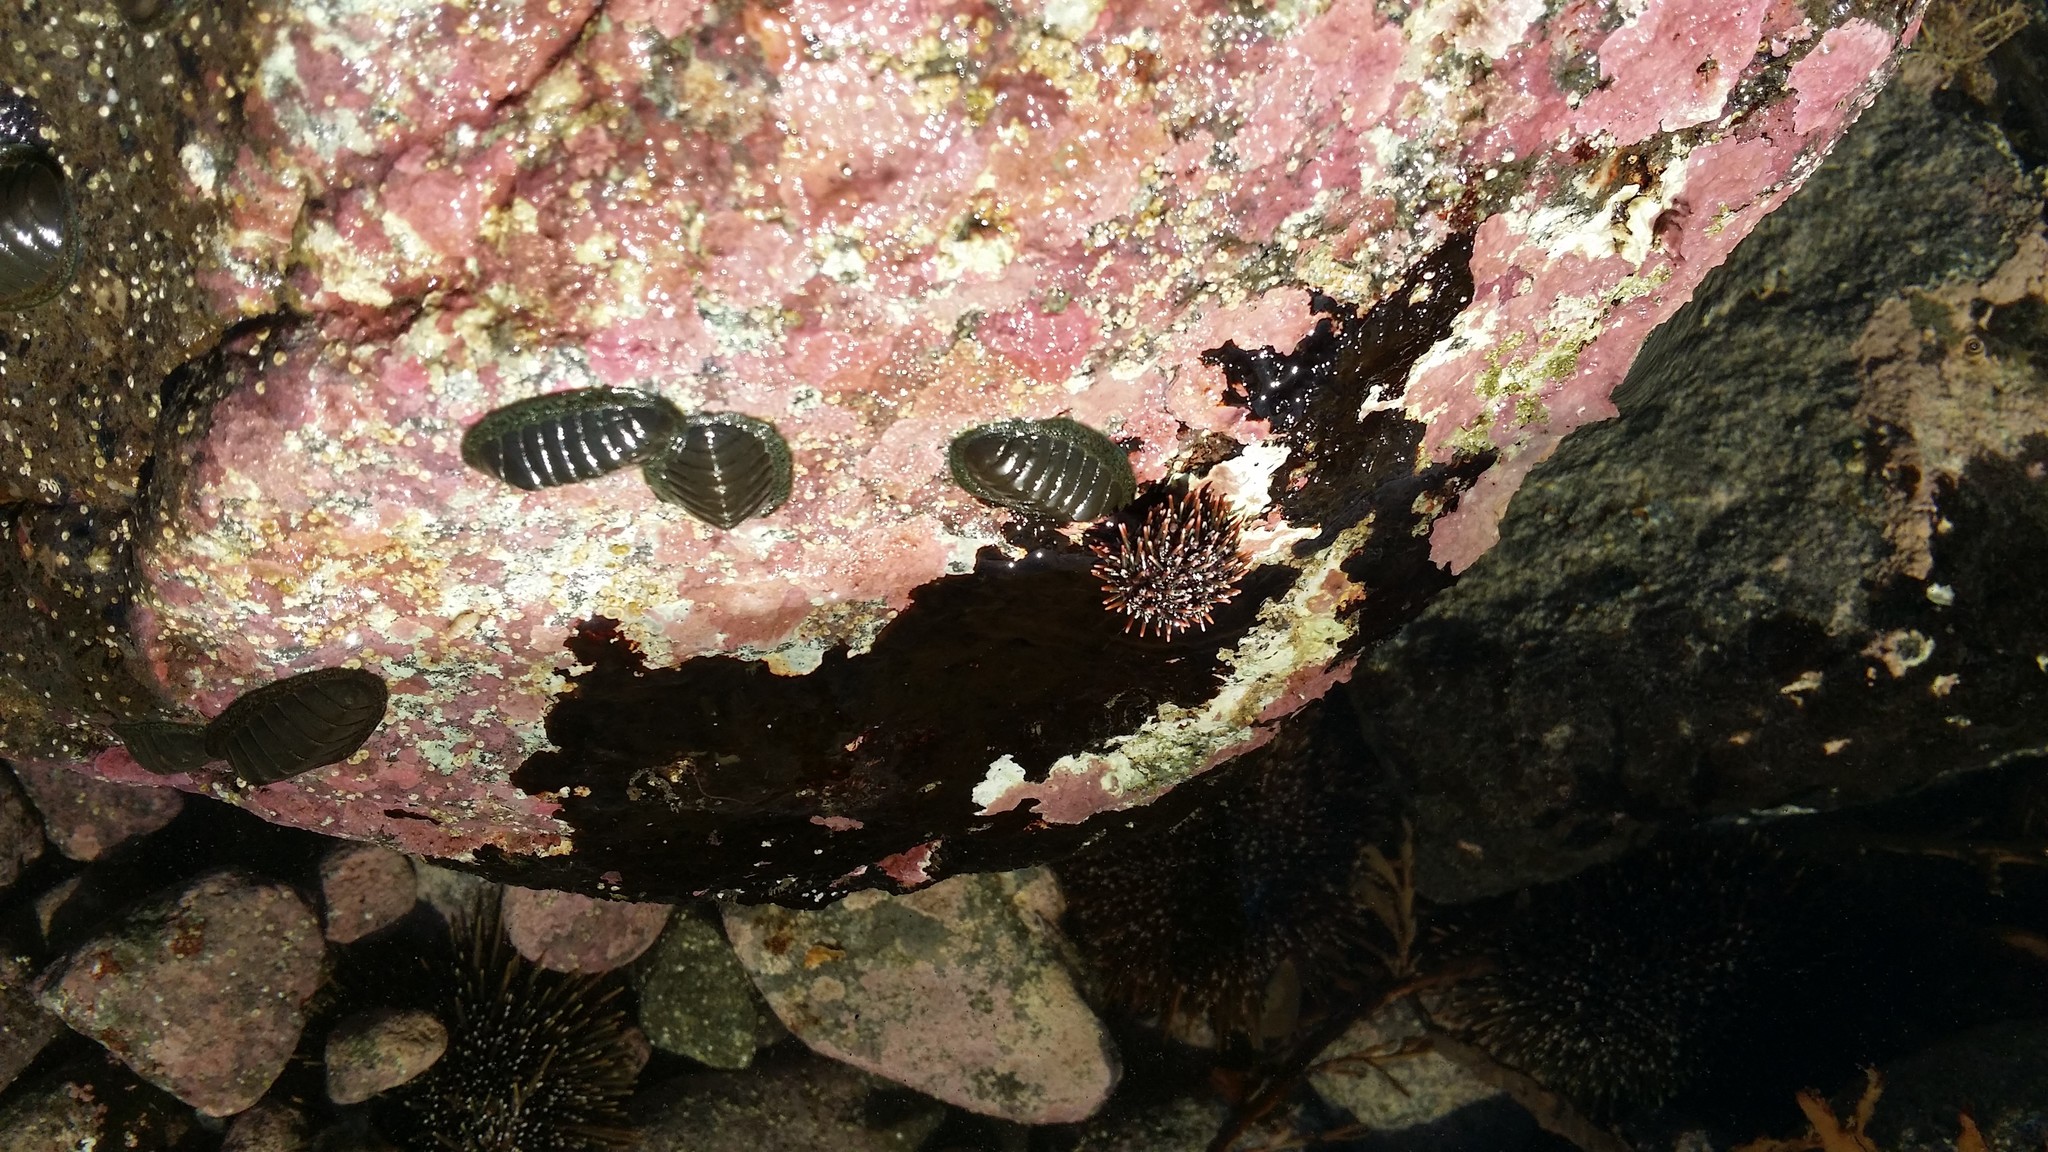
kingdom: Animalia
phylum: Mollusca
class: Polyplacophora
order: Chitonida
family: Chitonidae
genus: Chiton
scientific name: Chiton glaucus
